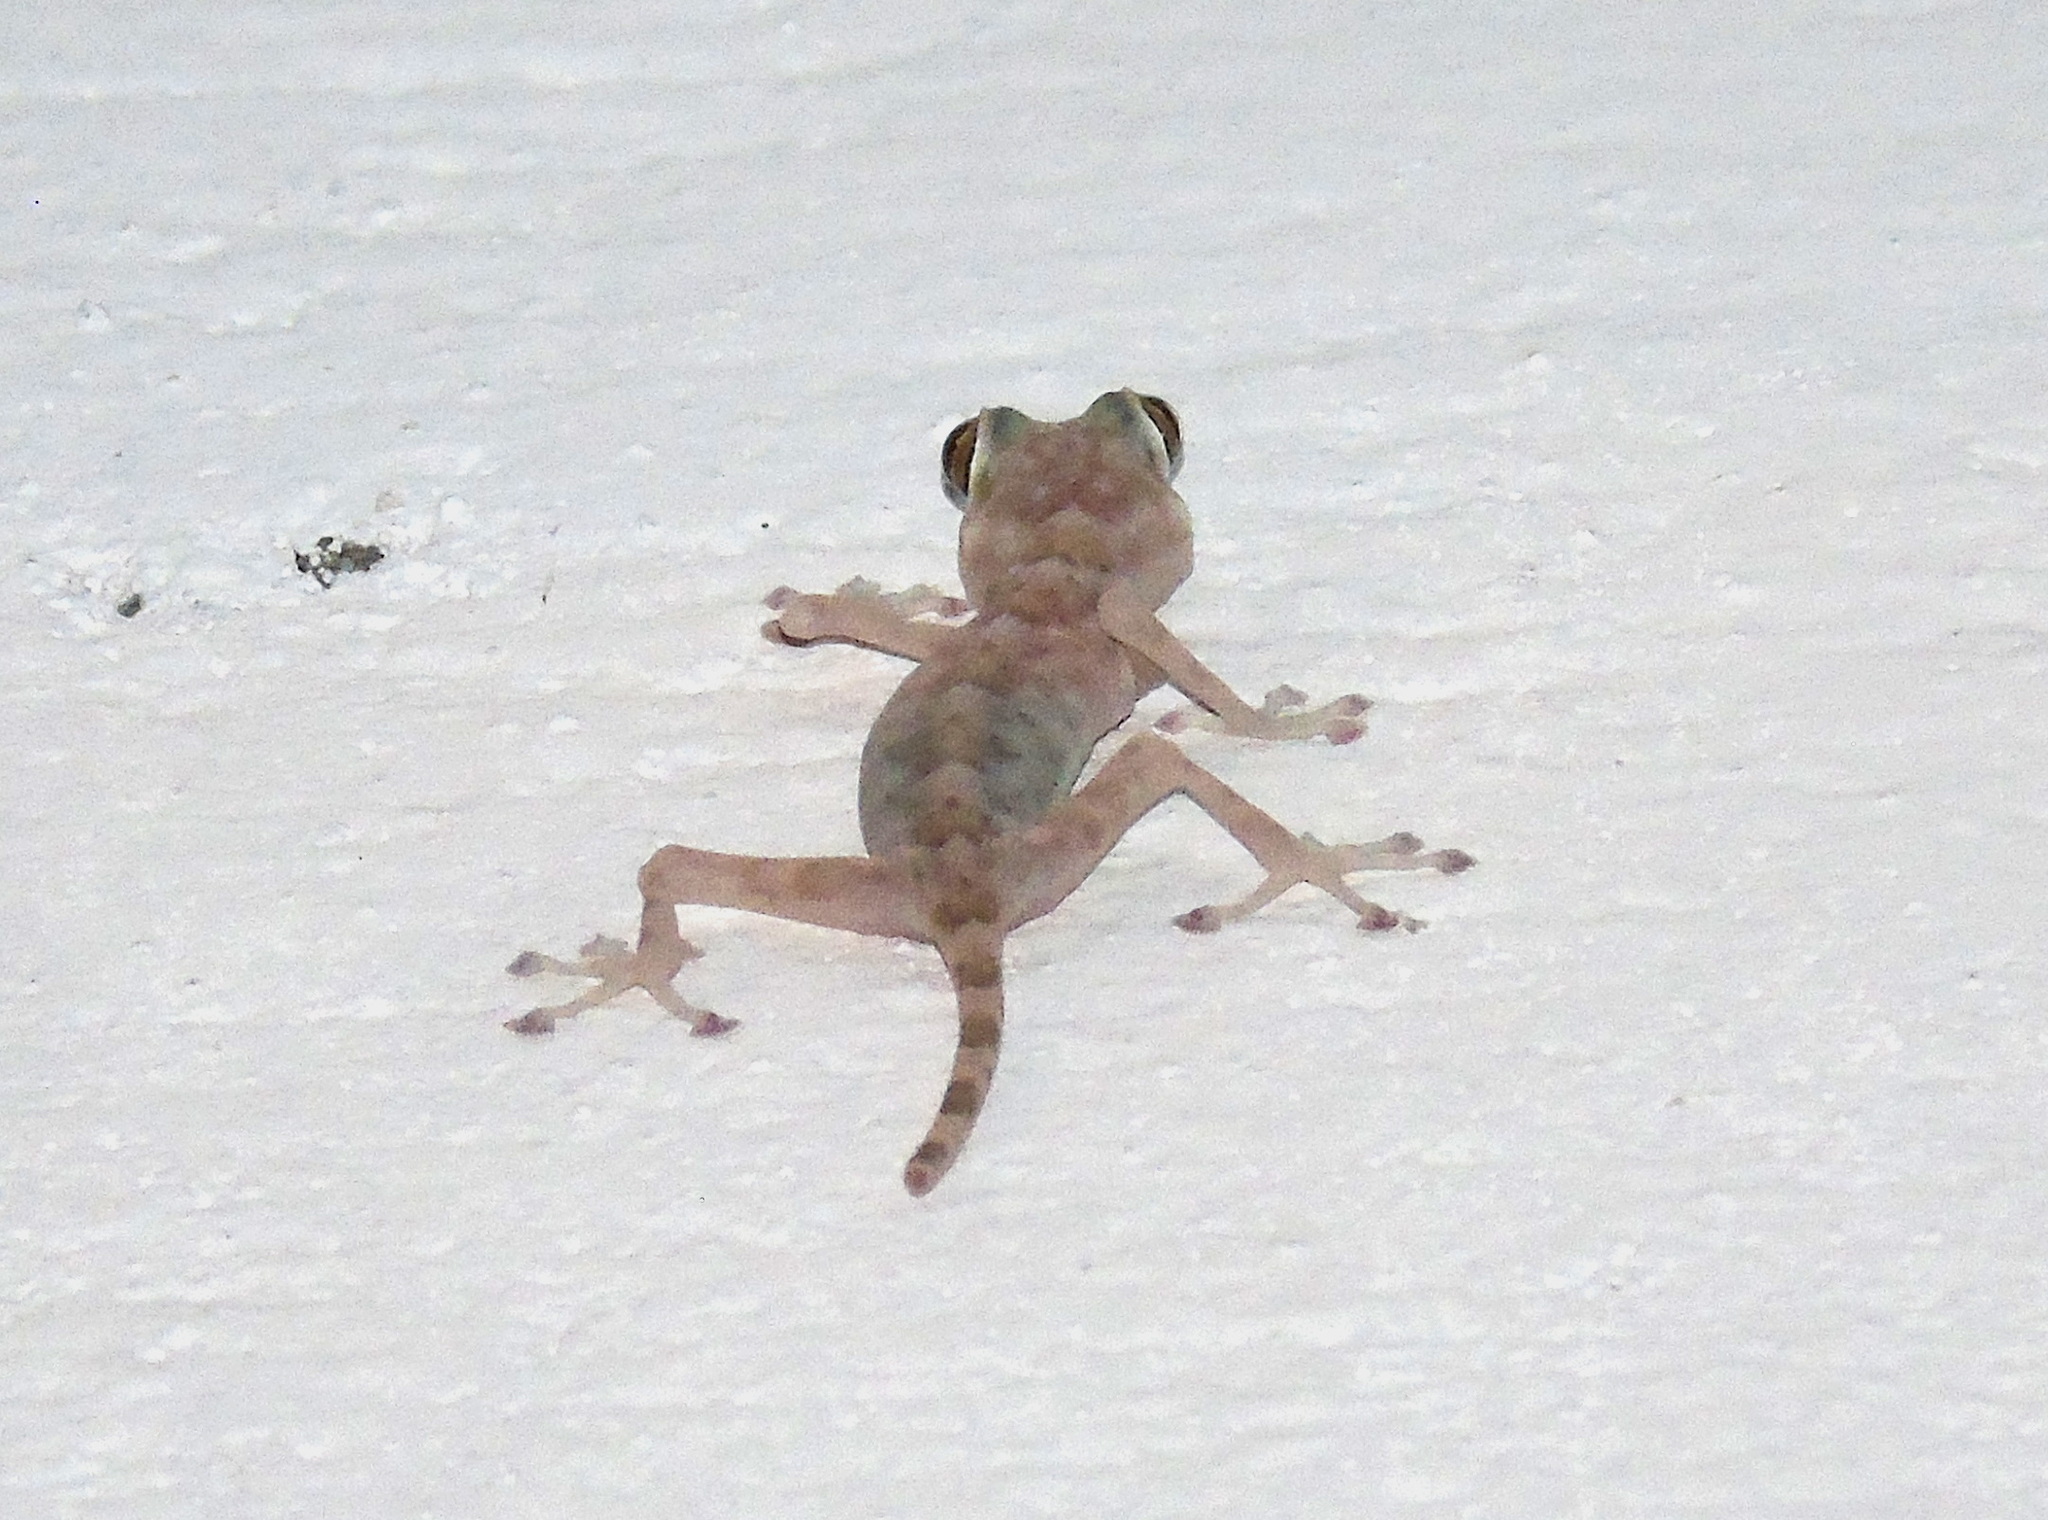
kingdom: Animalia
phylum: Chordata
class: Squamata
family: Phyllodactylidae
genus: Ptyodactylus
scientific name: Ptyodactylus hasselquistii
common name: Hasselquist’s fan-footed gecko
